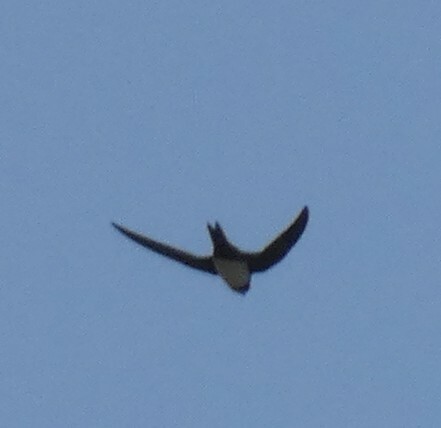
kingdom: Animalia
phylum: Chordata
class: Aves
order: Apodiformes
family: Apodidae
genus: Tachymarptis
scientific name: Tachymarptis melba
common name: Alpine swift
